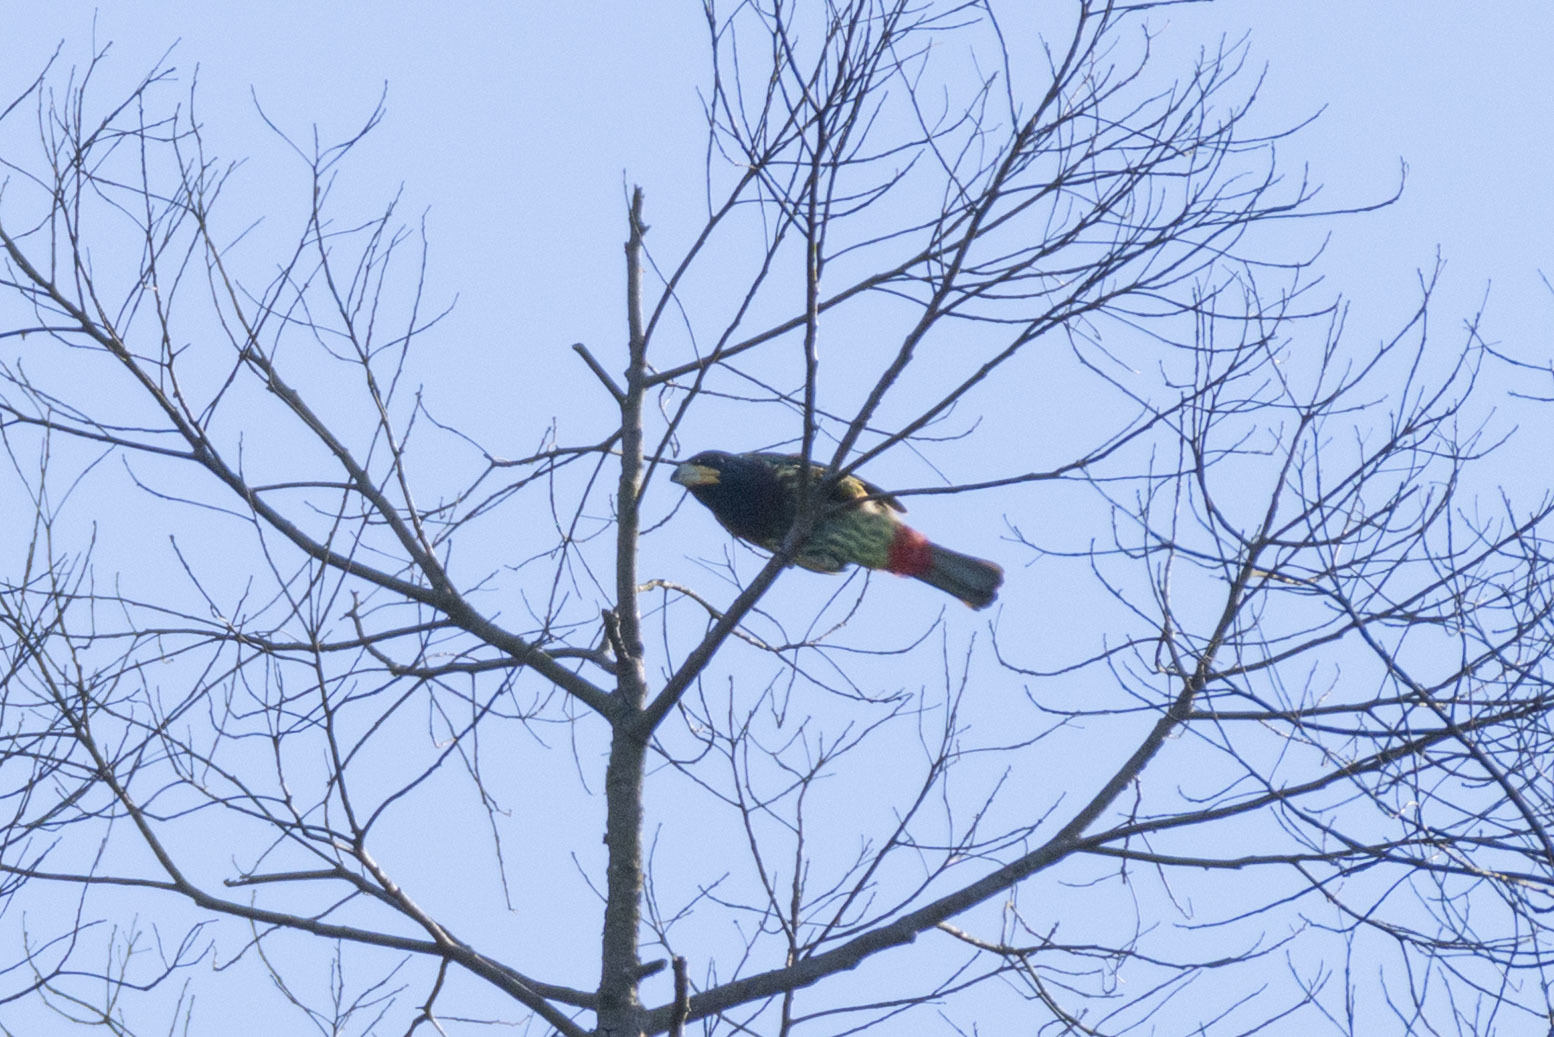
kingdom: Animalia
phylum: Chordata
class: Aves
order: Piciformes
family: Megalaimidae
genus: Psilopogon
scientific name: Psilopogon virens
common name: Great barbet
